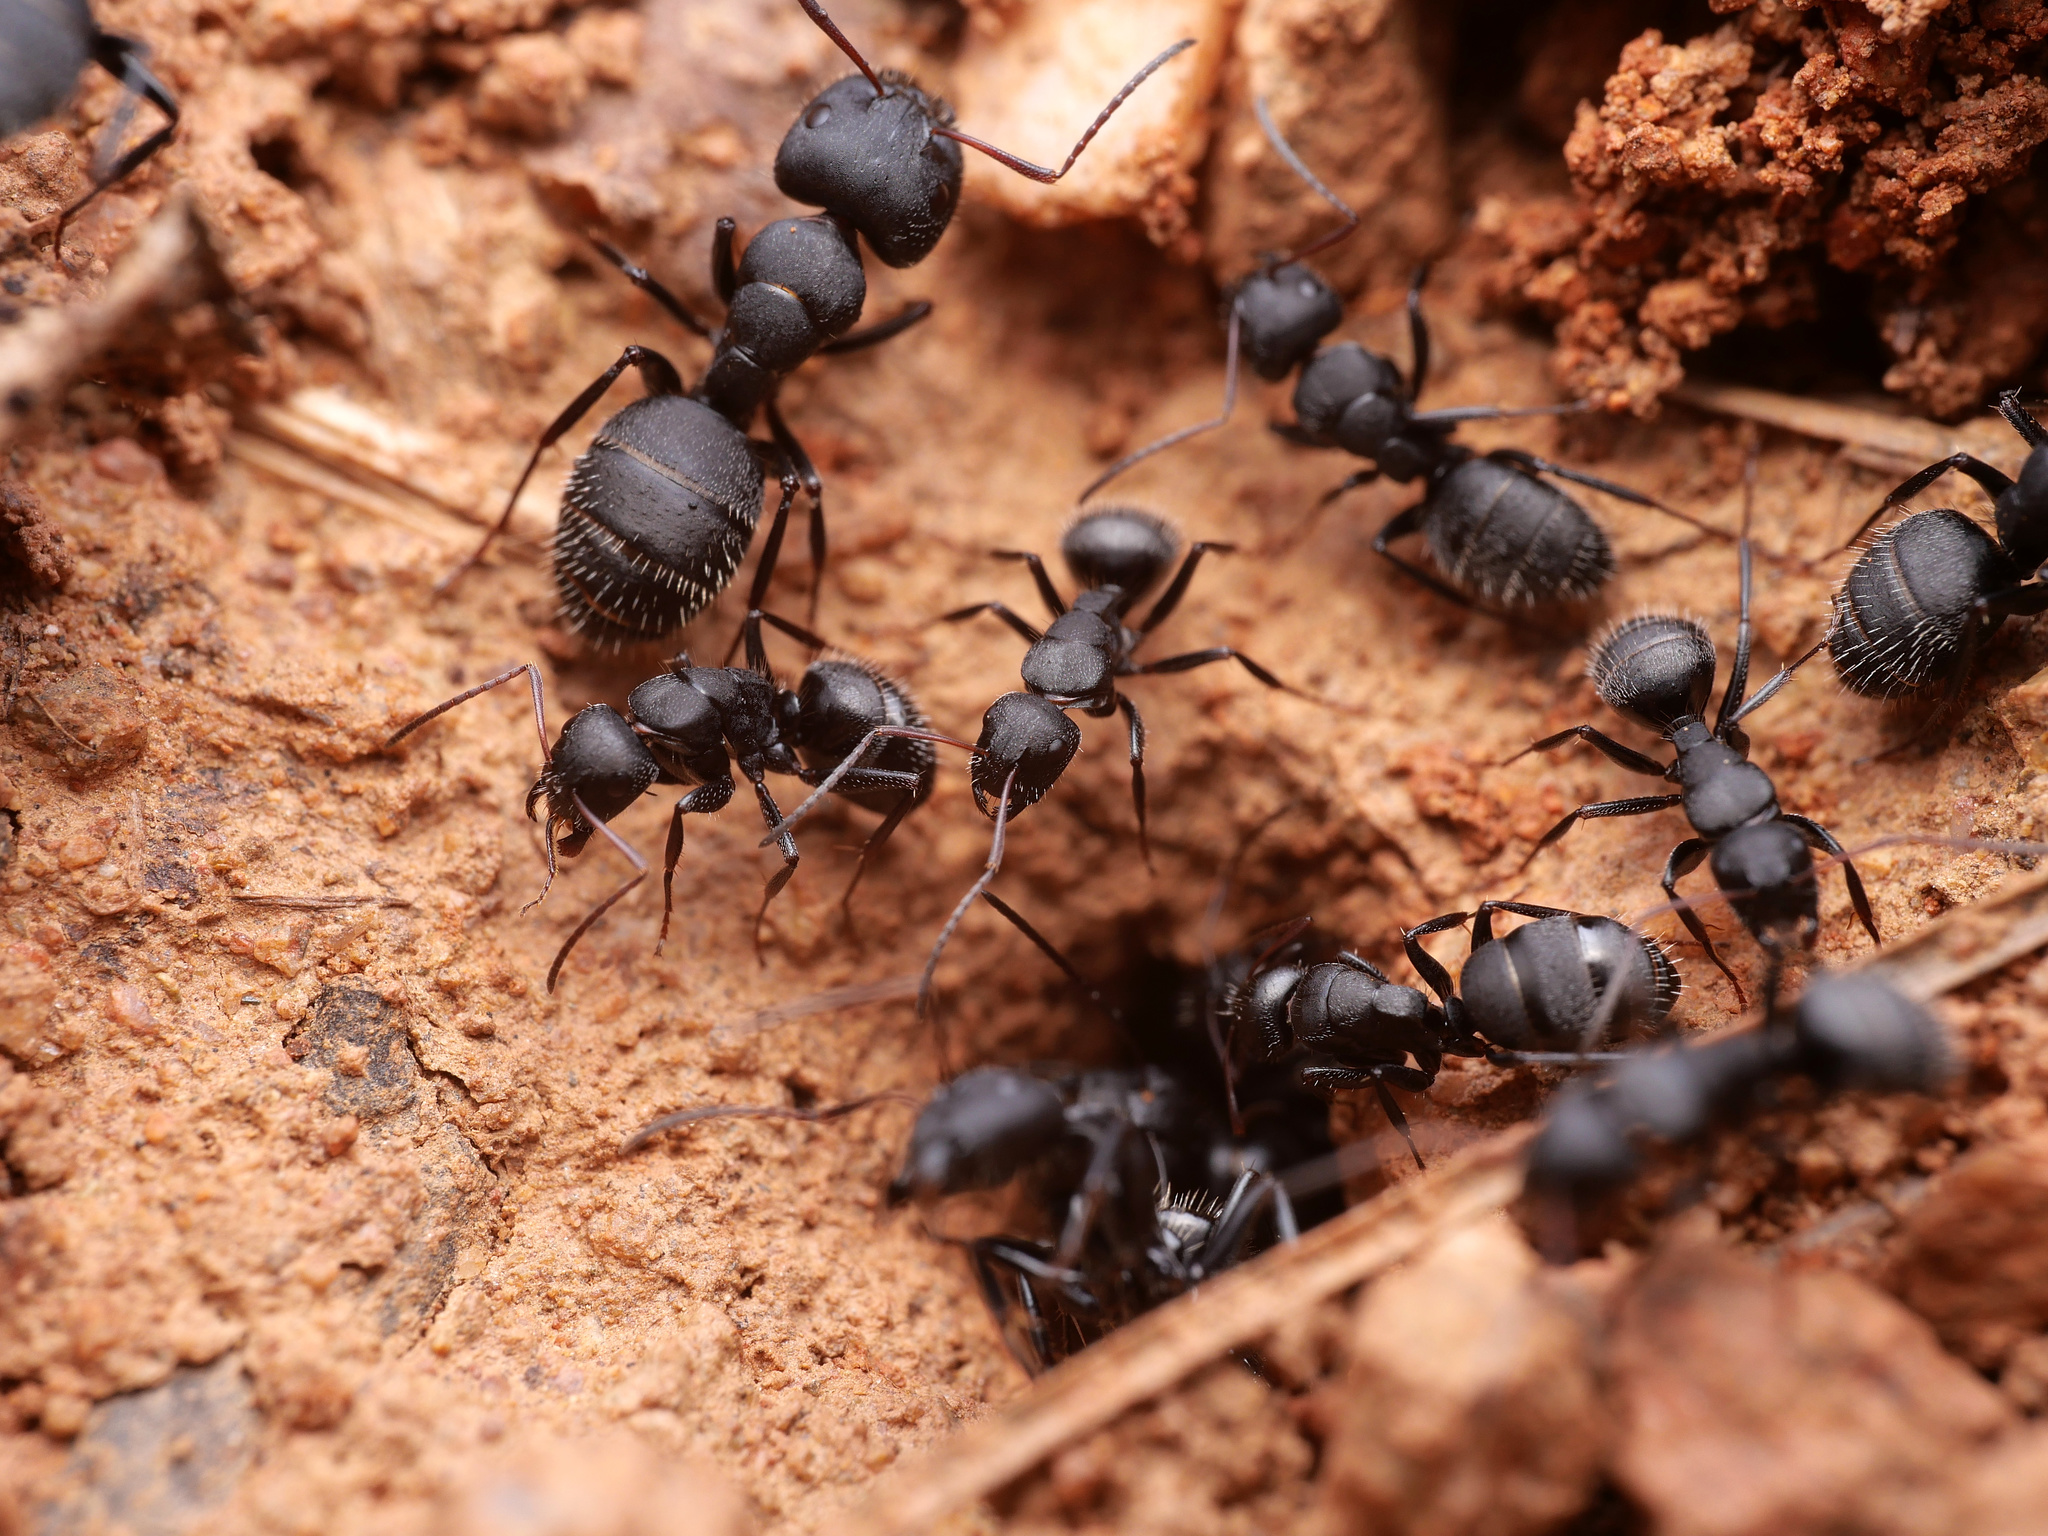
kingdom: Animalia
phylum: Arthropoda
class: Insecta
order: Hymenoptera
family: Formicidae
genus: Camponotus
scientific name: Camponotus aegaeus
